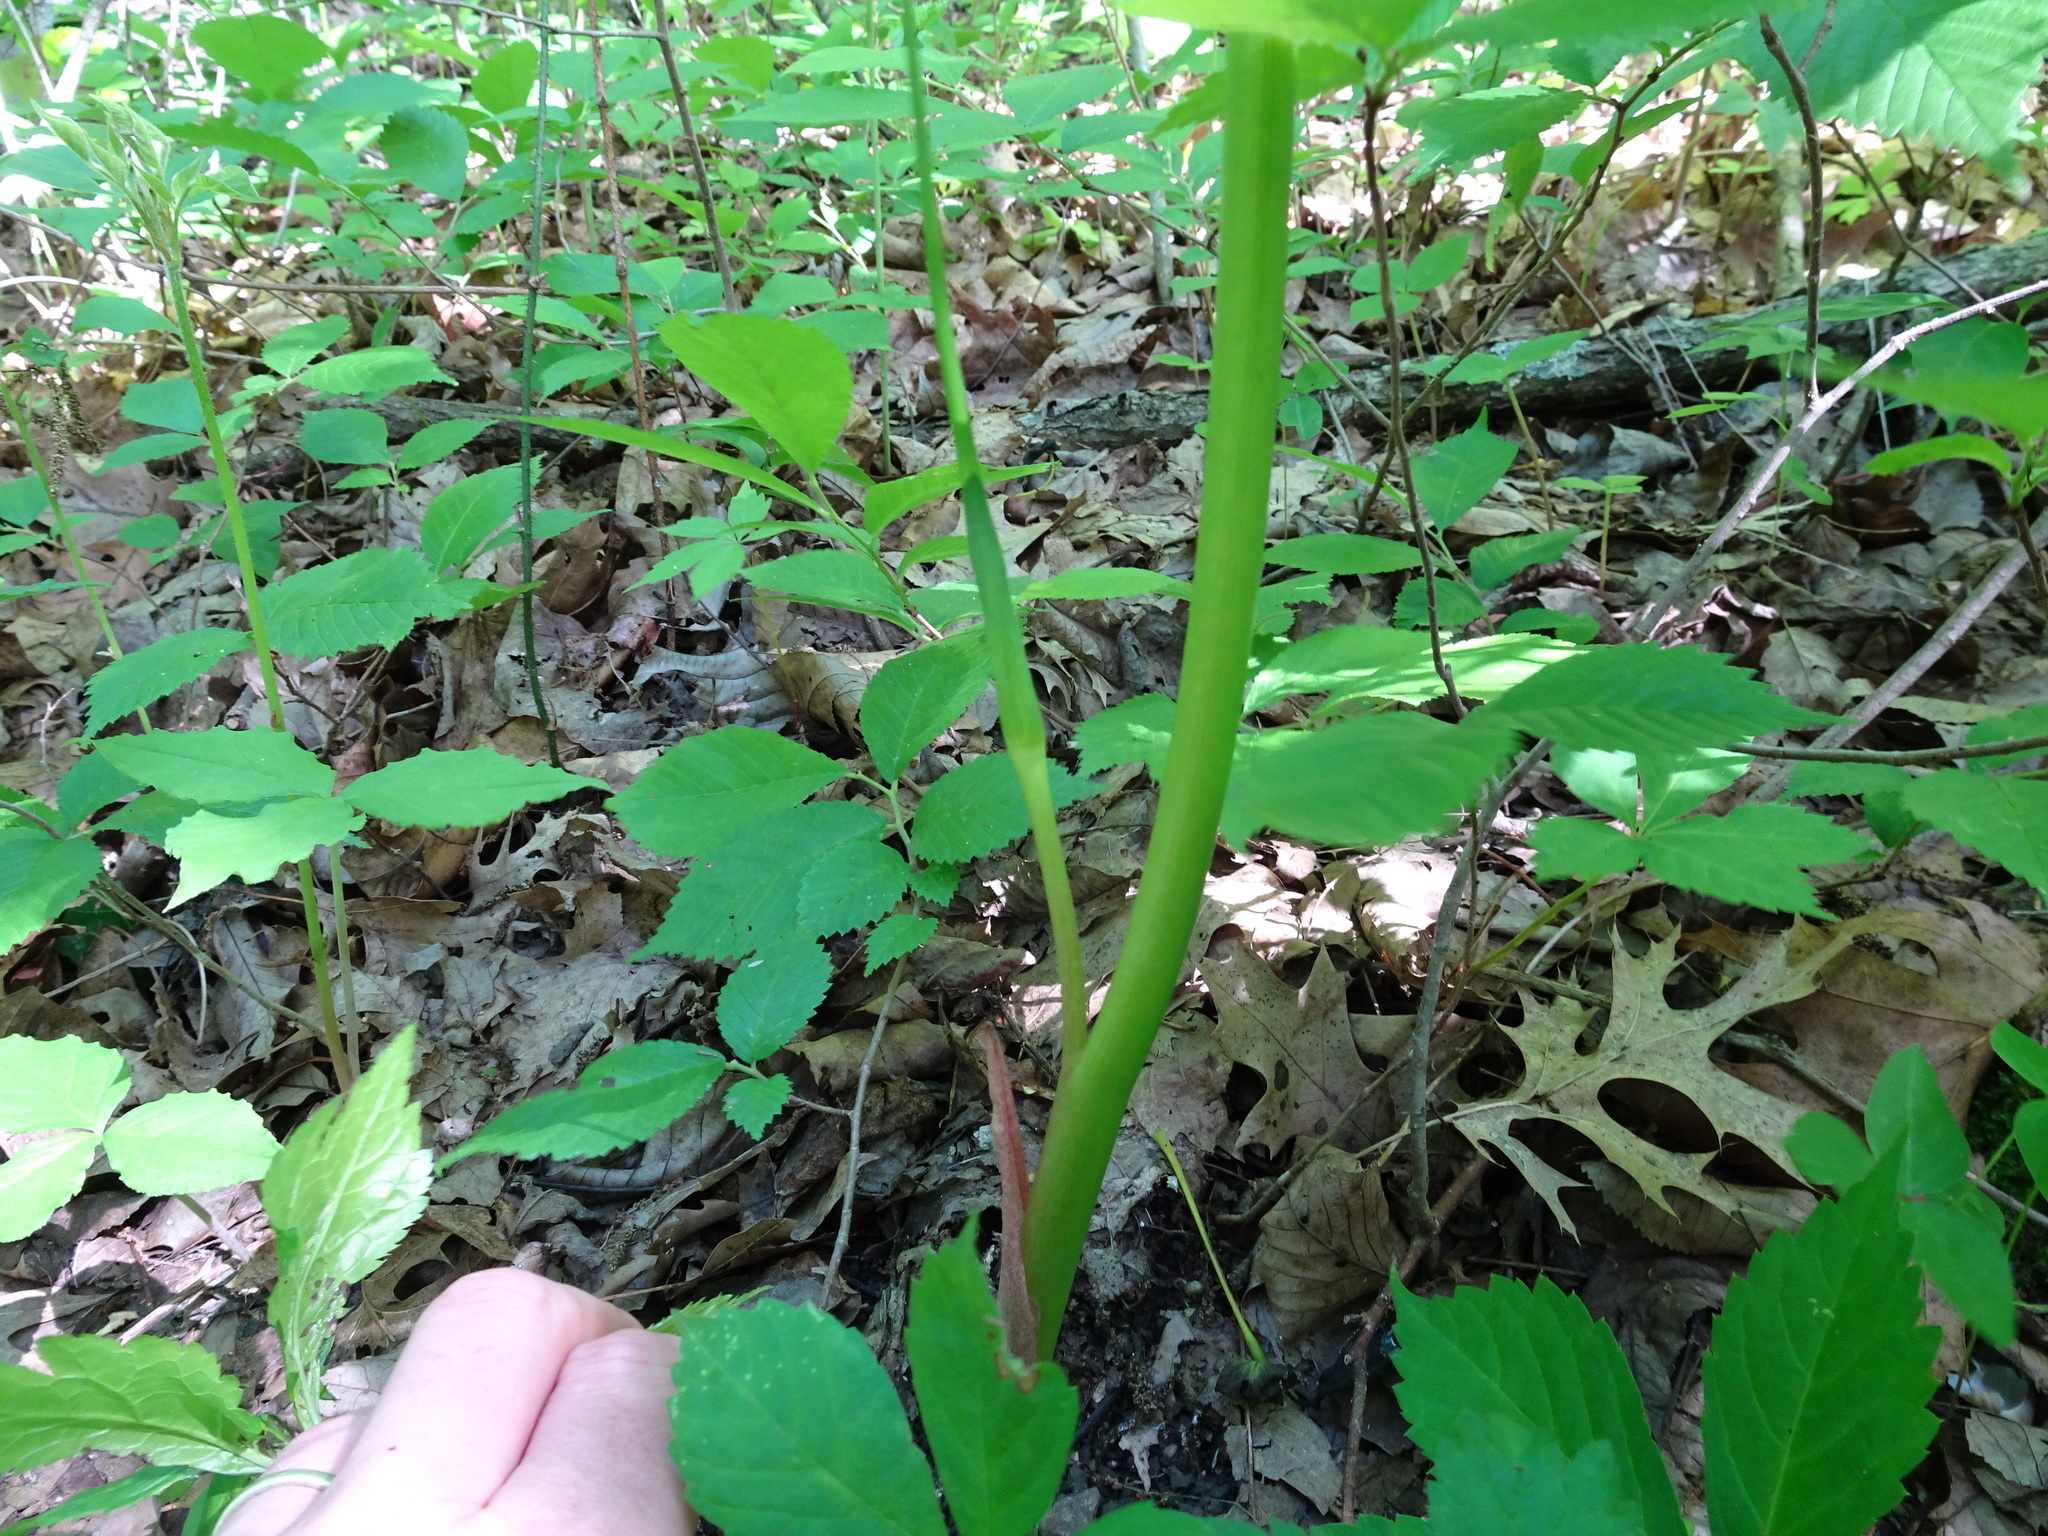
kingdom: Plantae
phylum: Tracheophyta
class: Liliopsida
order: Alismatales
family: Araceae
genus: Arisaema
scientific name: Arisaema dracontium
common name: Dragon-arum
